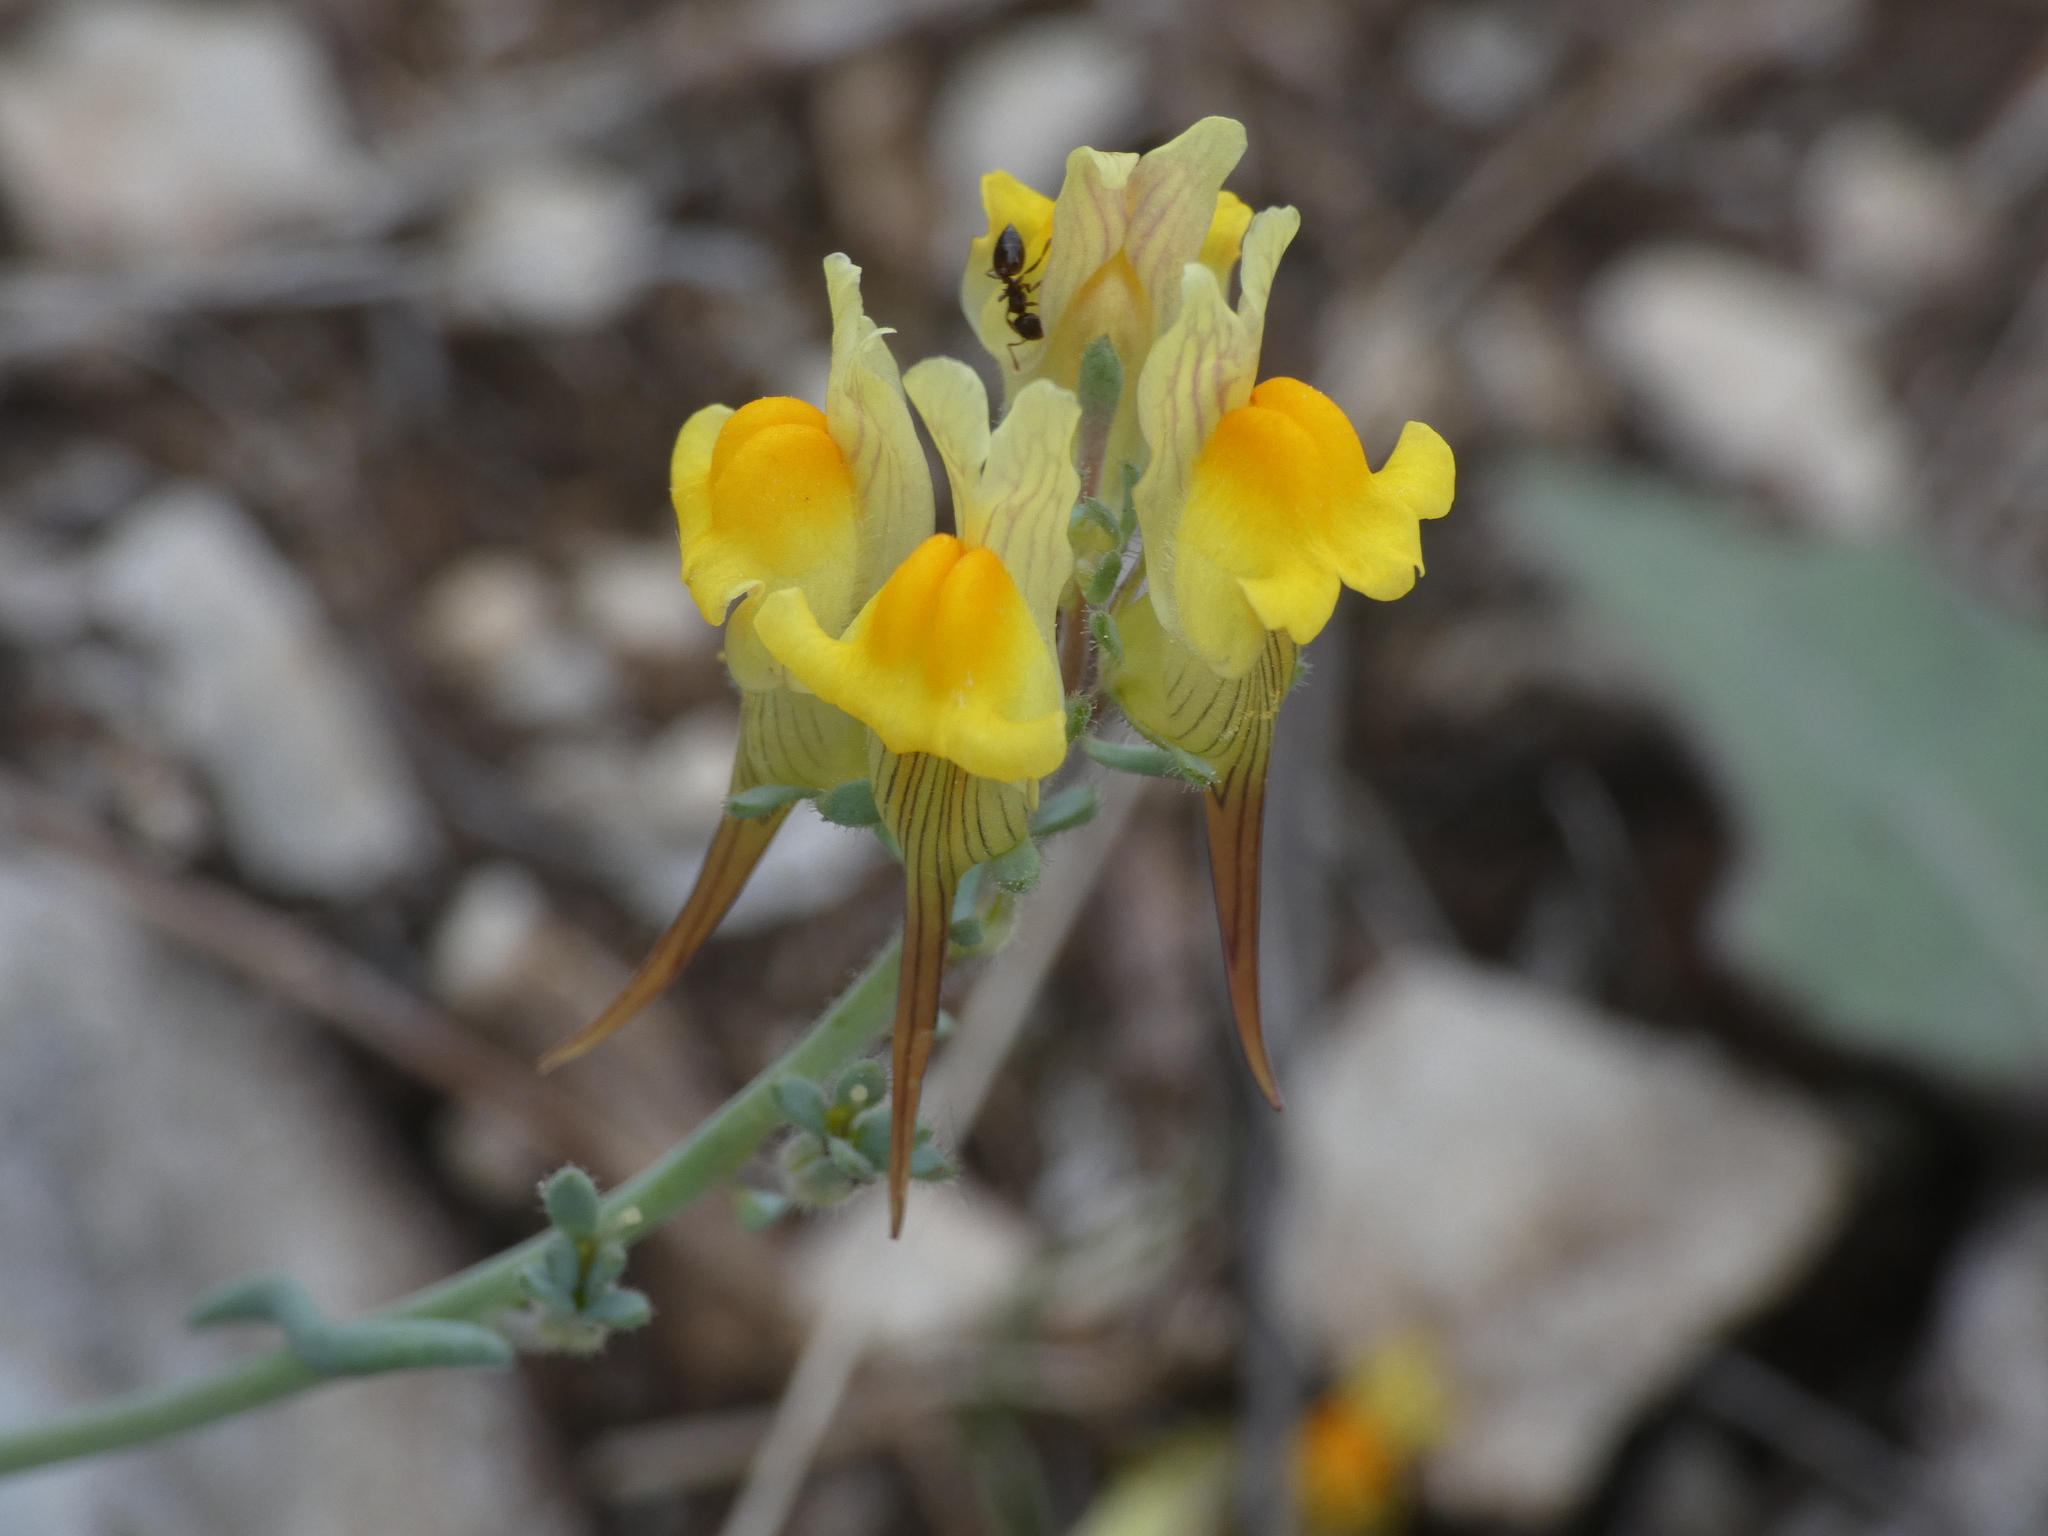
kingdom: Plantae
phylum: Tracheophyta
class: Magnoliopsida
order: Lamiales
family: Plantaginaceae
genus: Linaria
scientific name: Linaria supina
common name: Prostrate toadflax
